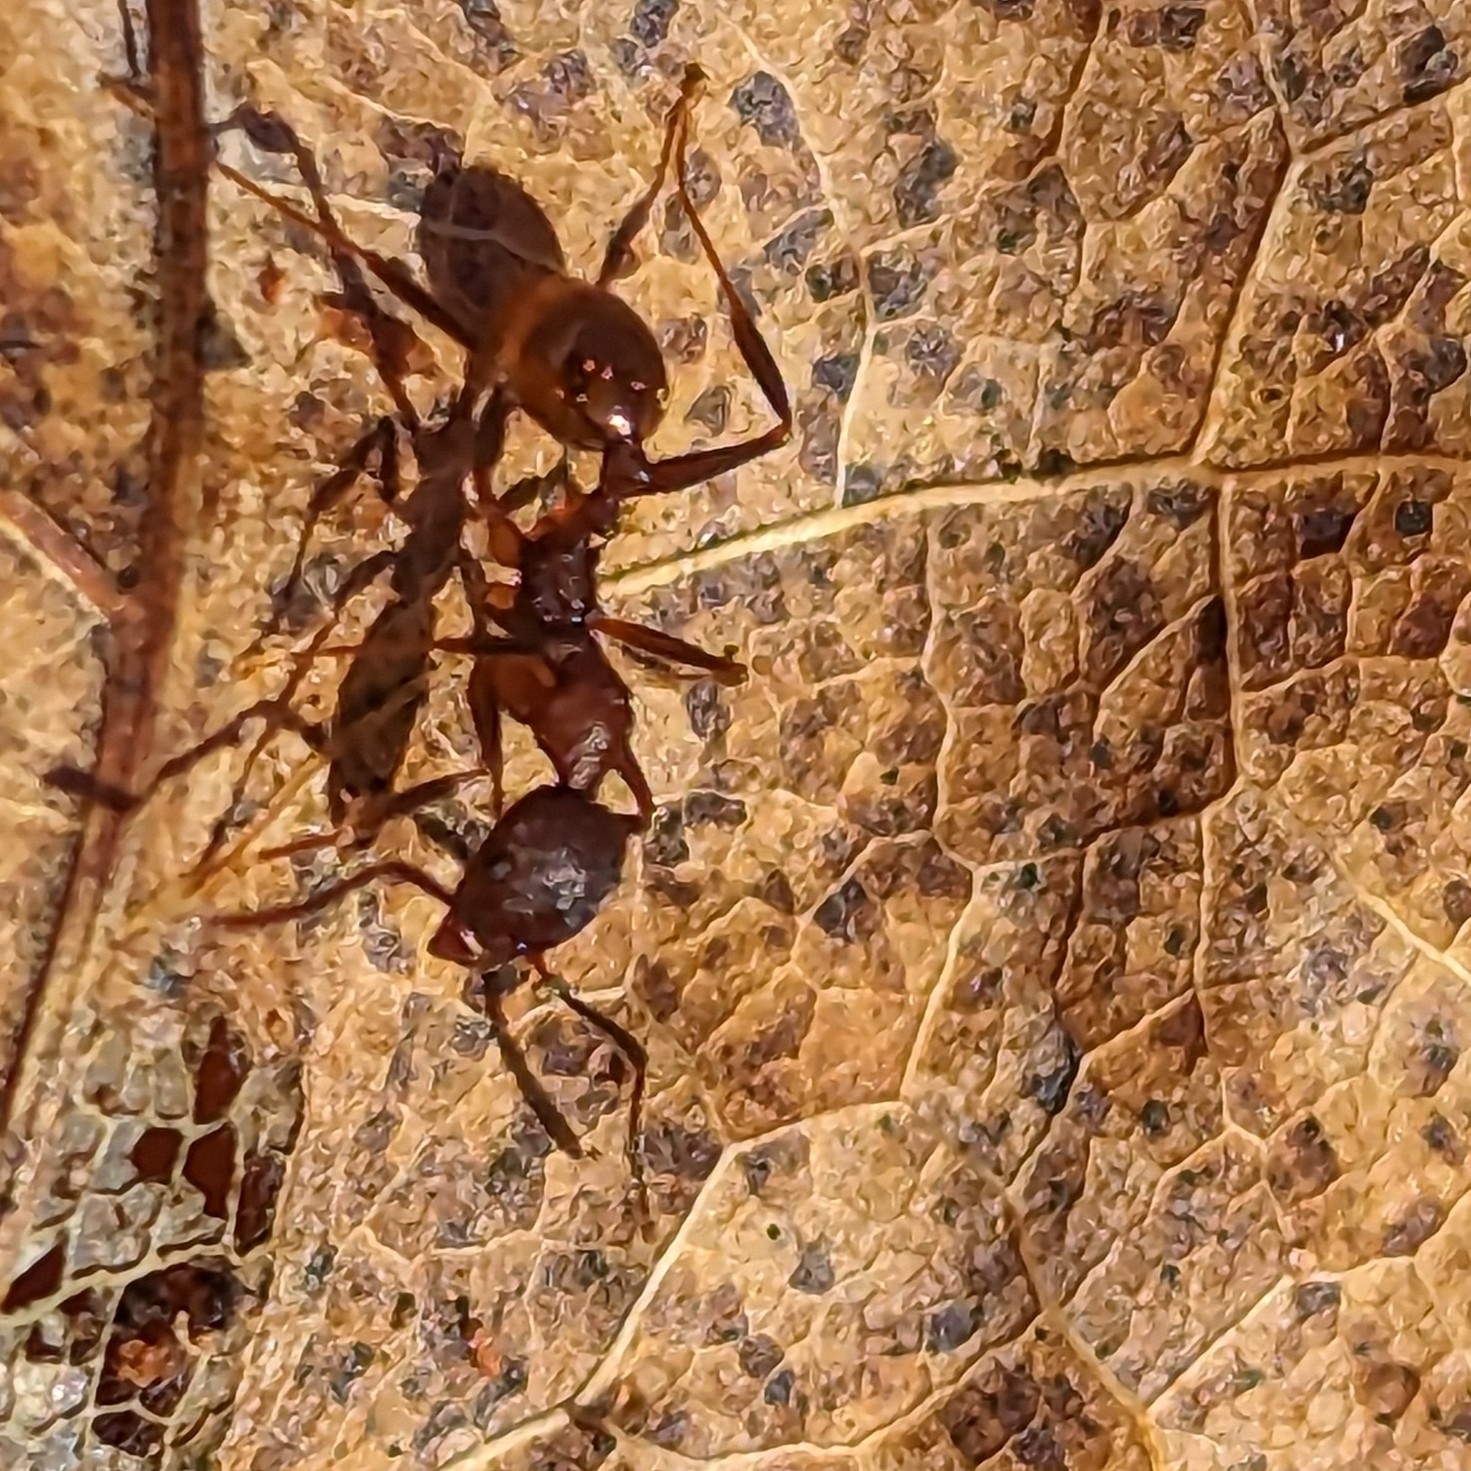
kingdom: Animalia
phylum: Arthropoda
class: Insecta
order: Hymenoptera
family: Formicidae
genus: Aphaenogaster
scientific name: Aphaenogaster fulva
